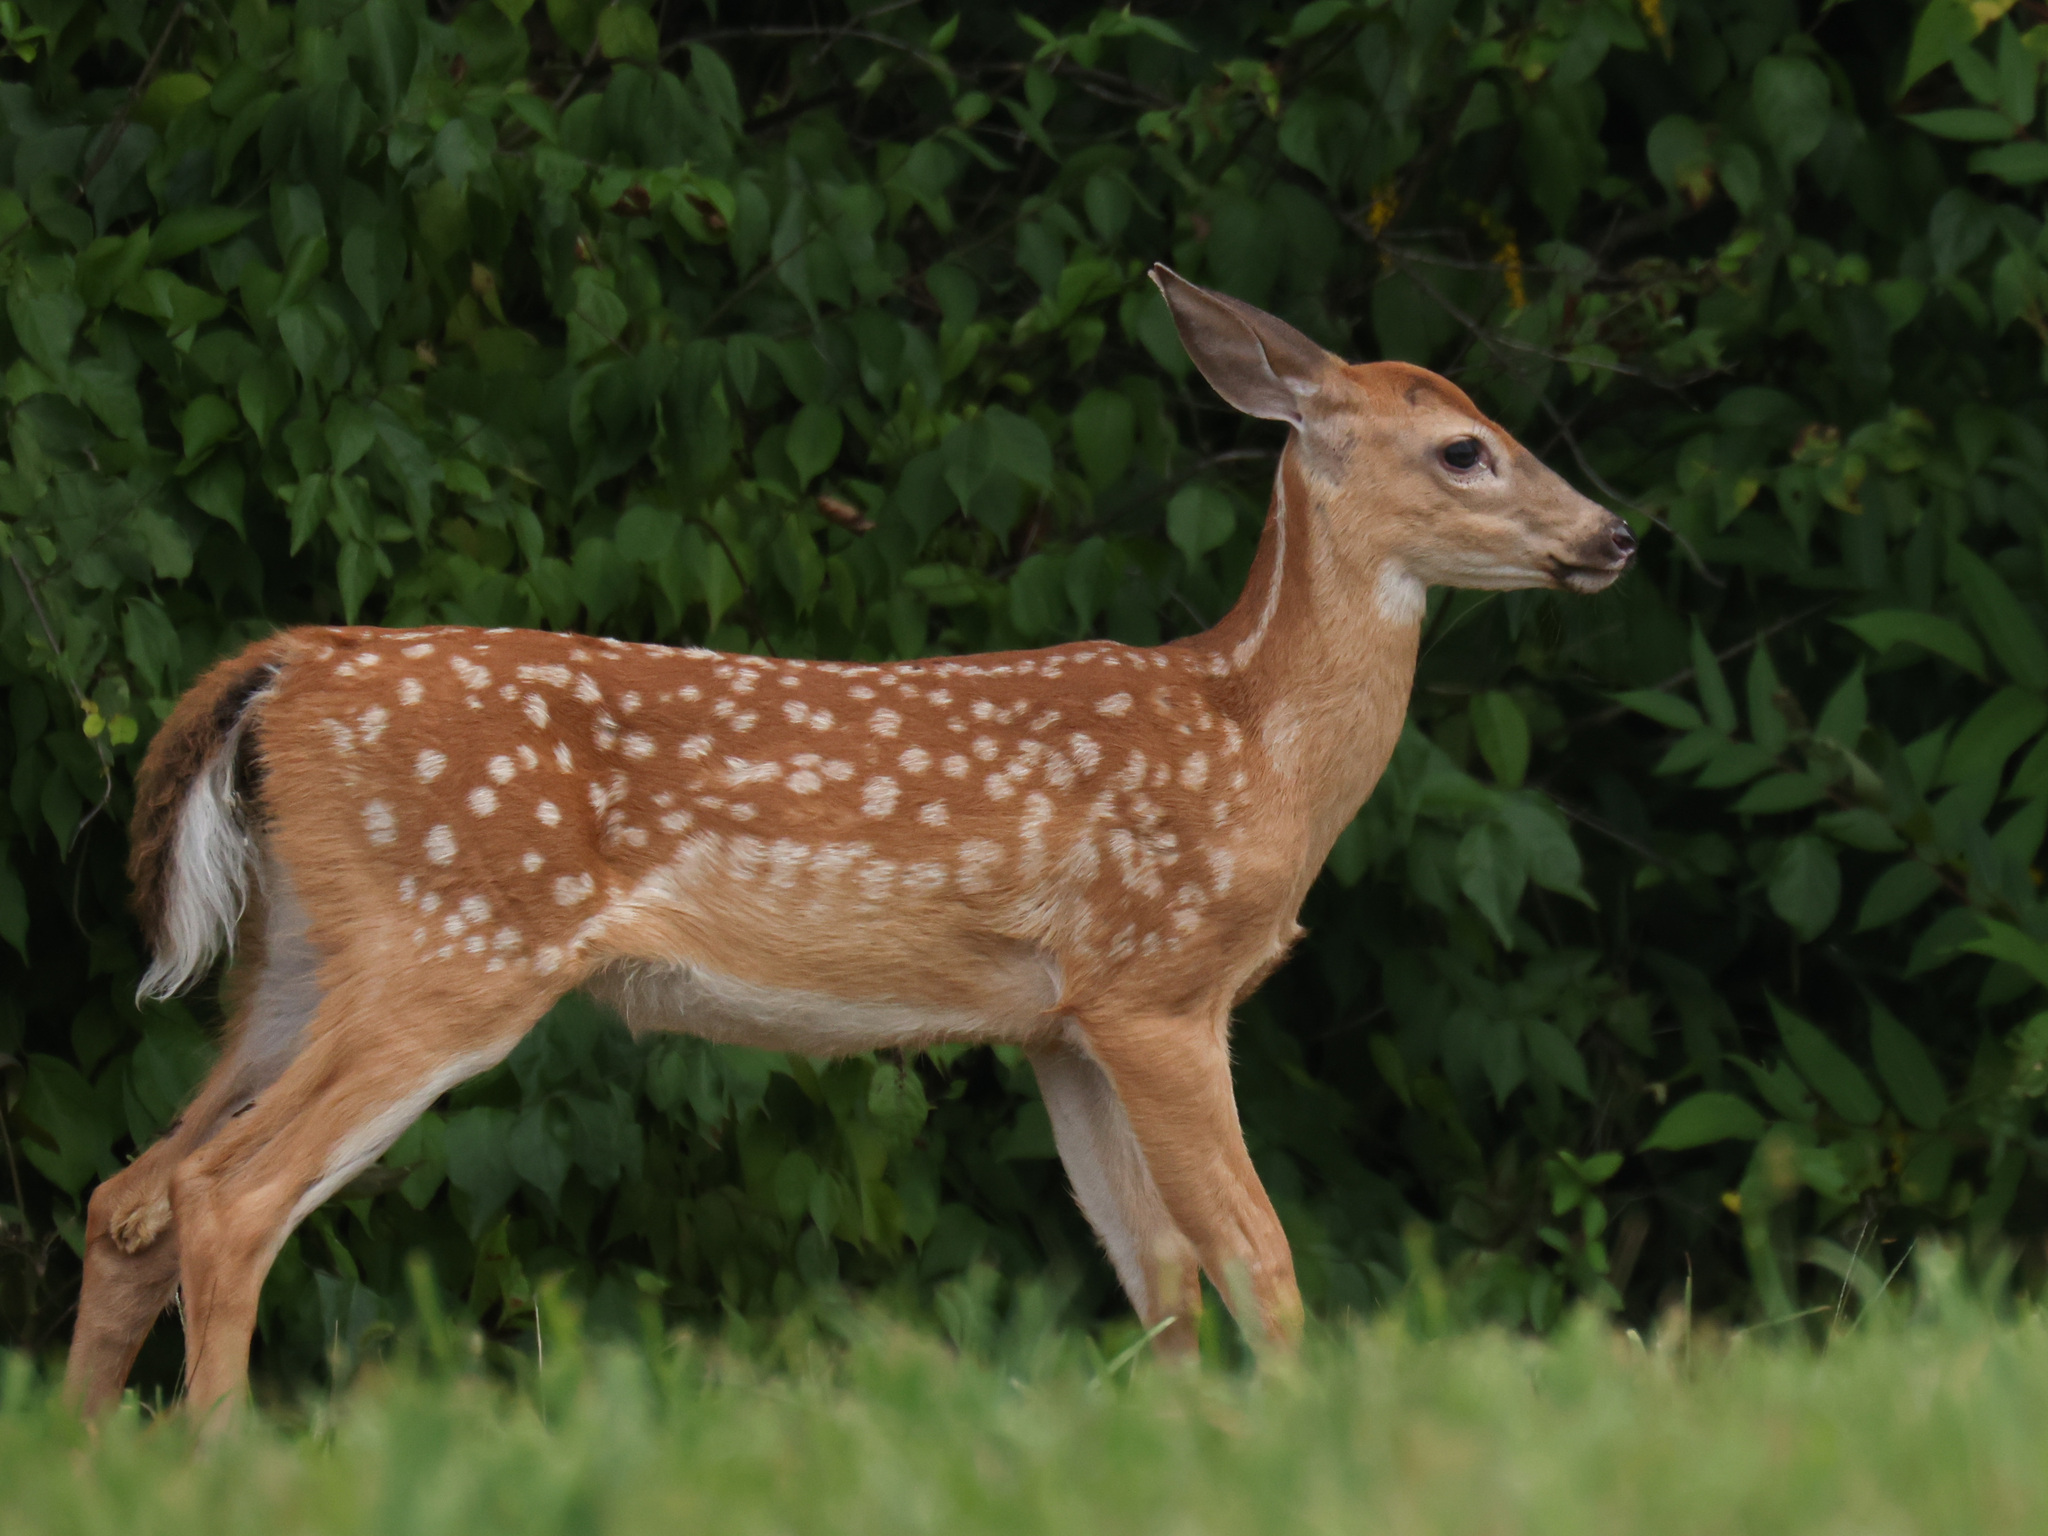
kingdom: Animalia
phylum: Chordata
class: Mammalia
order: Artiodactyla
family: Cervidae
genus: Odocoileus
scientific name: Odocoileus virginianus
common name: White-tailed deer
